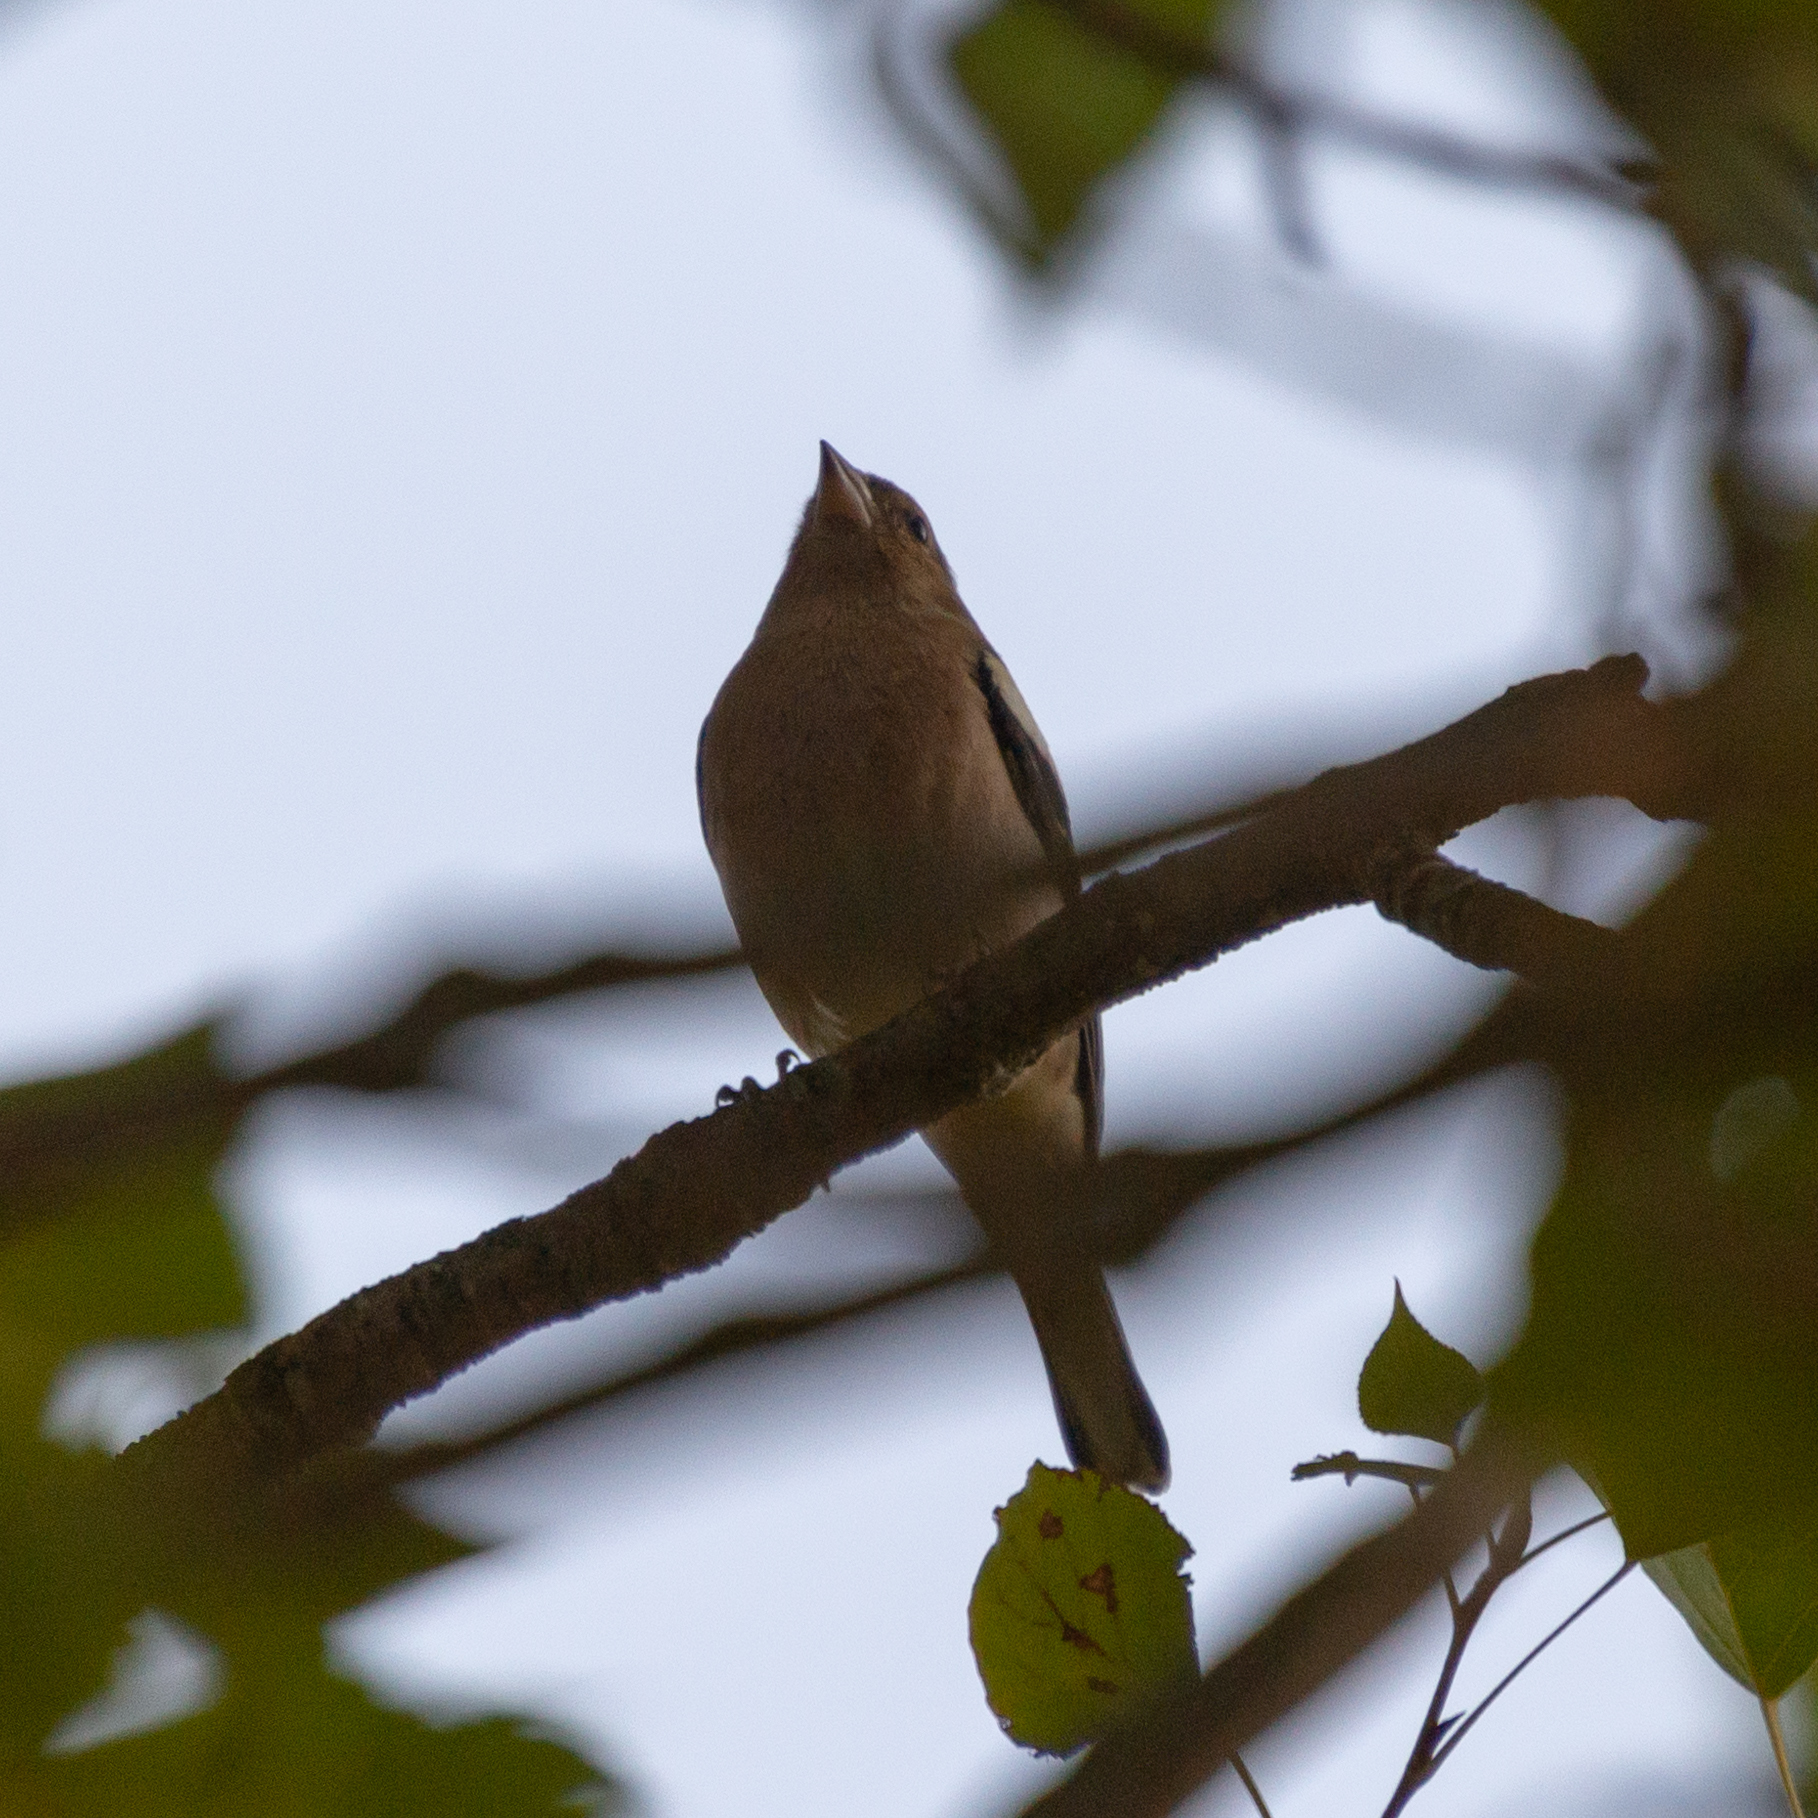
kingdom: Animalia
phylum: Chordata
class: Aves
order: Passeriformes
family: Fringillidae
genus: Fringilla
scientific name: Fringilla coelebs
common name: Common chaffinch
